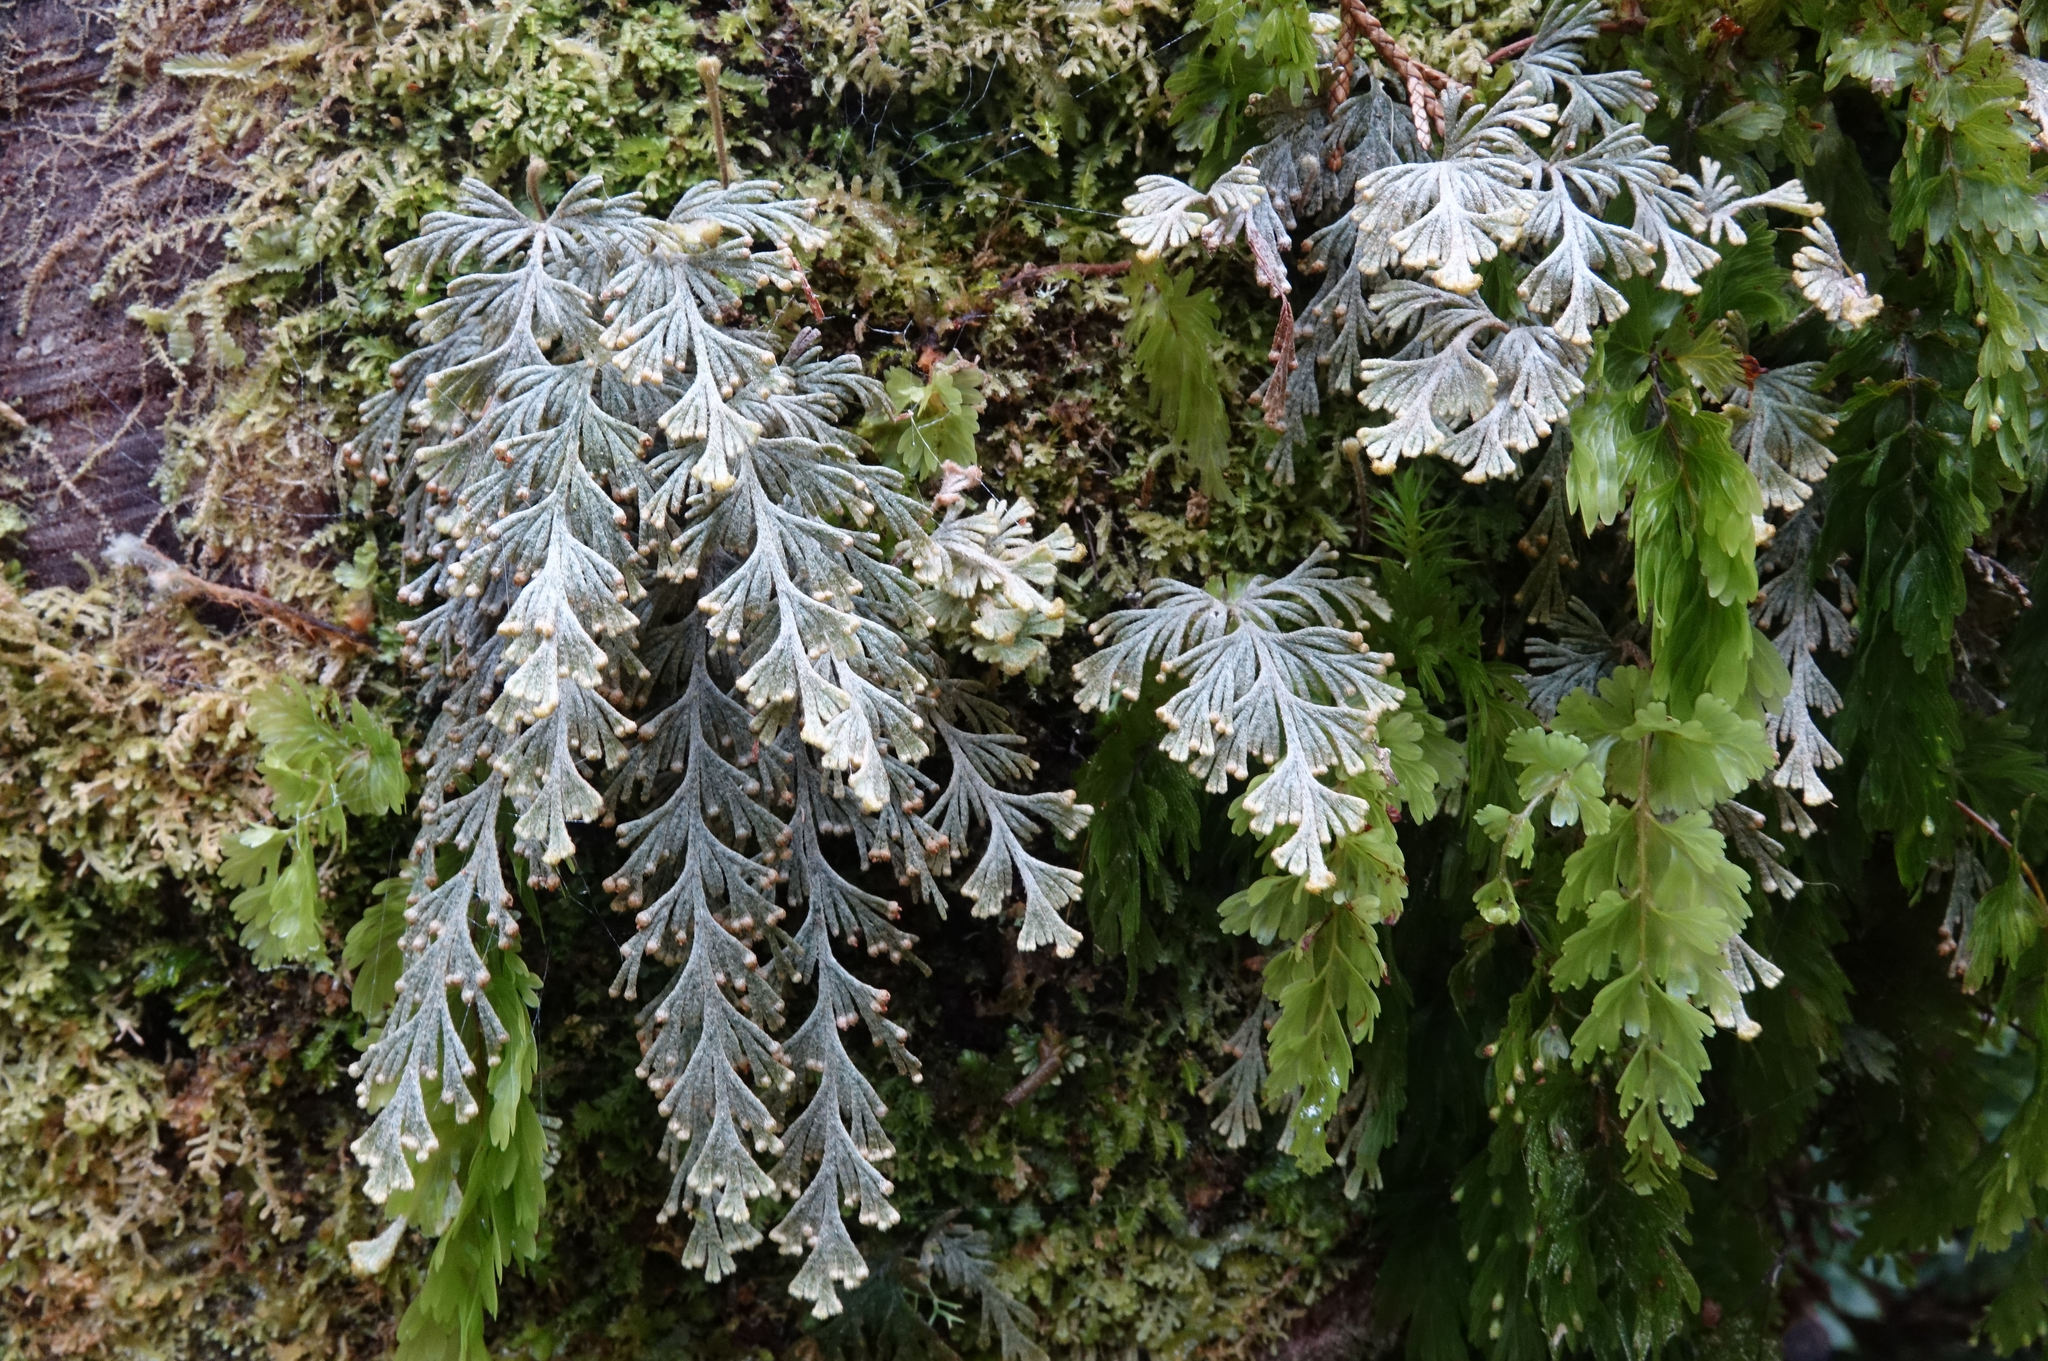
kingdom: Plantae
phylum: Tracheophyta
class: Polypodiopsida
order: Hymenophyllales
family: Hymenophyllaceae
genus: Hymenophyllum
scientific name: Hymenophyllum malingii
